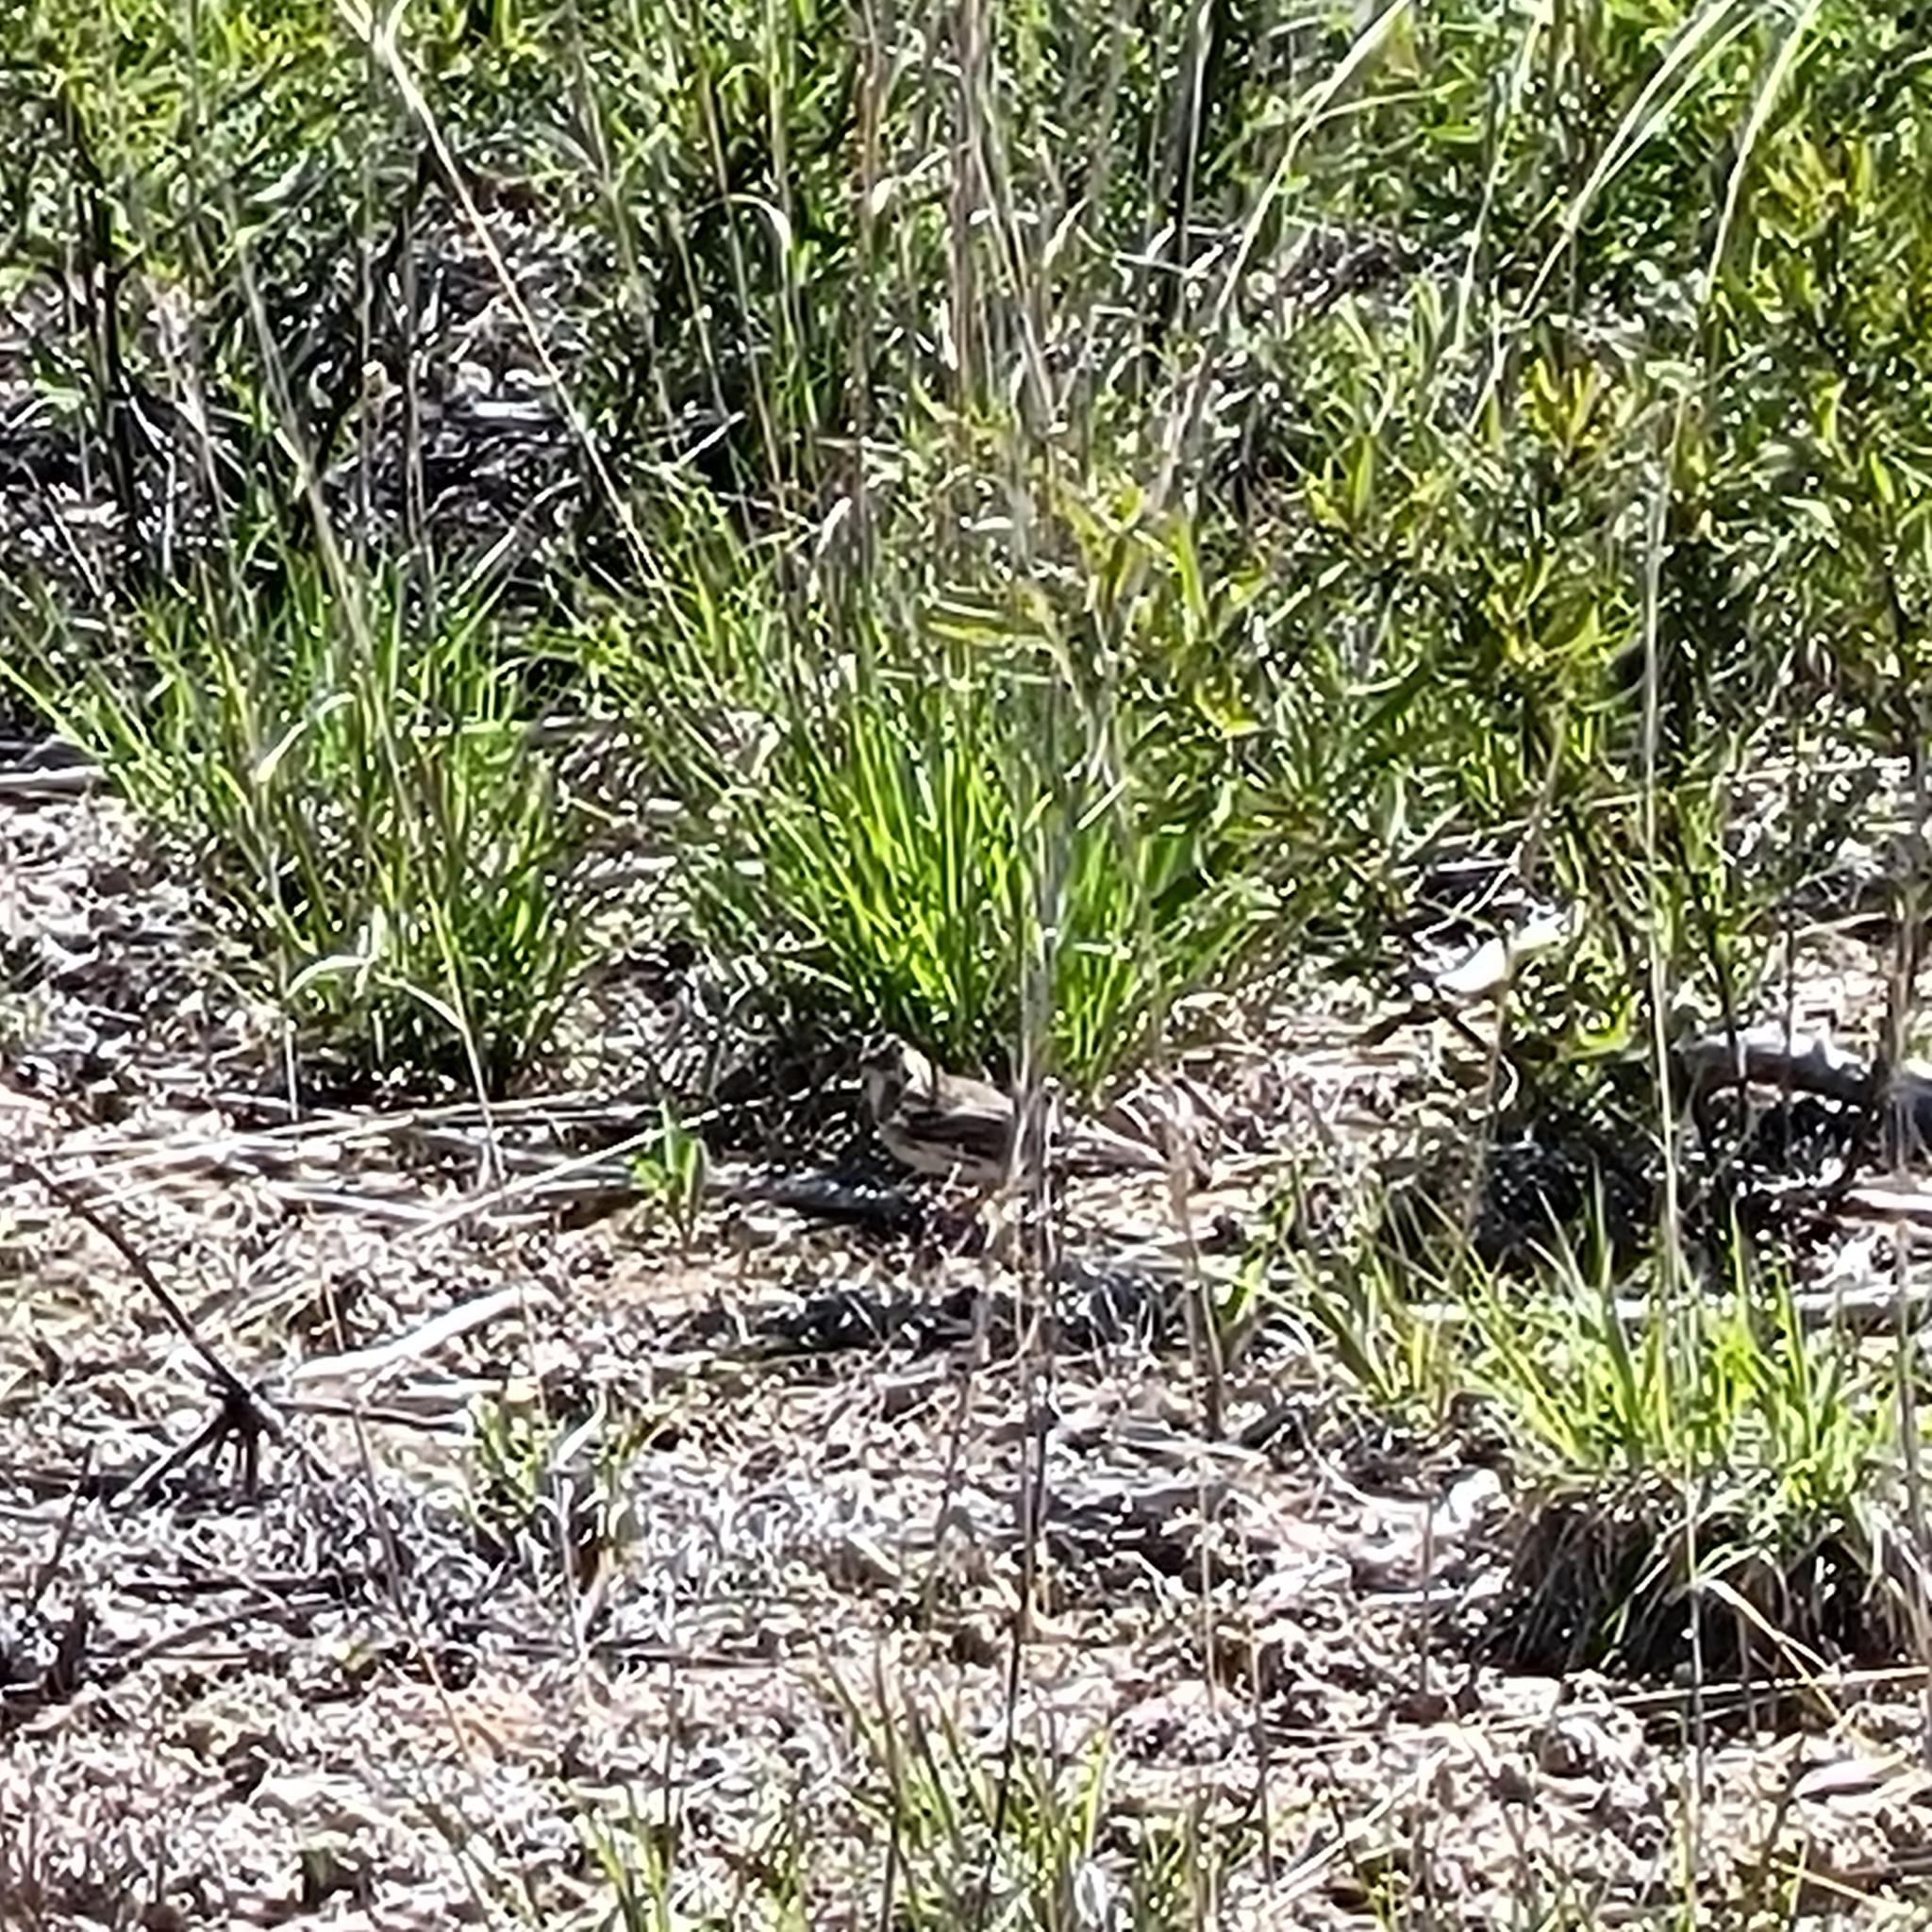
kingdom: Animalia
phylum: Chordata
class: Aves
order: Passeriformes
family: Passerellidae
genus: Pooecetes
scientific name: Pooecetes gramineus
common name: Vesper sparrow
